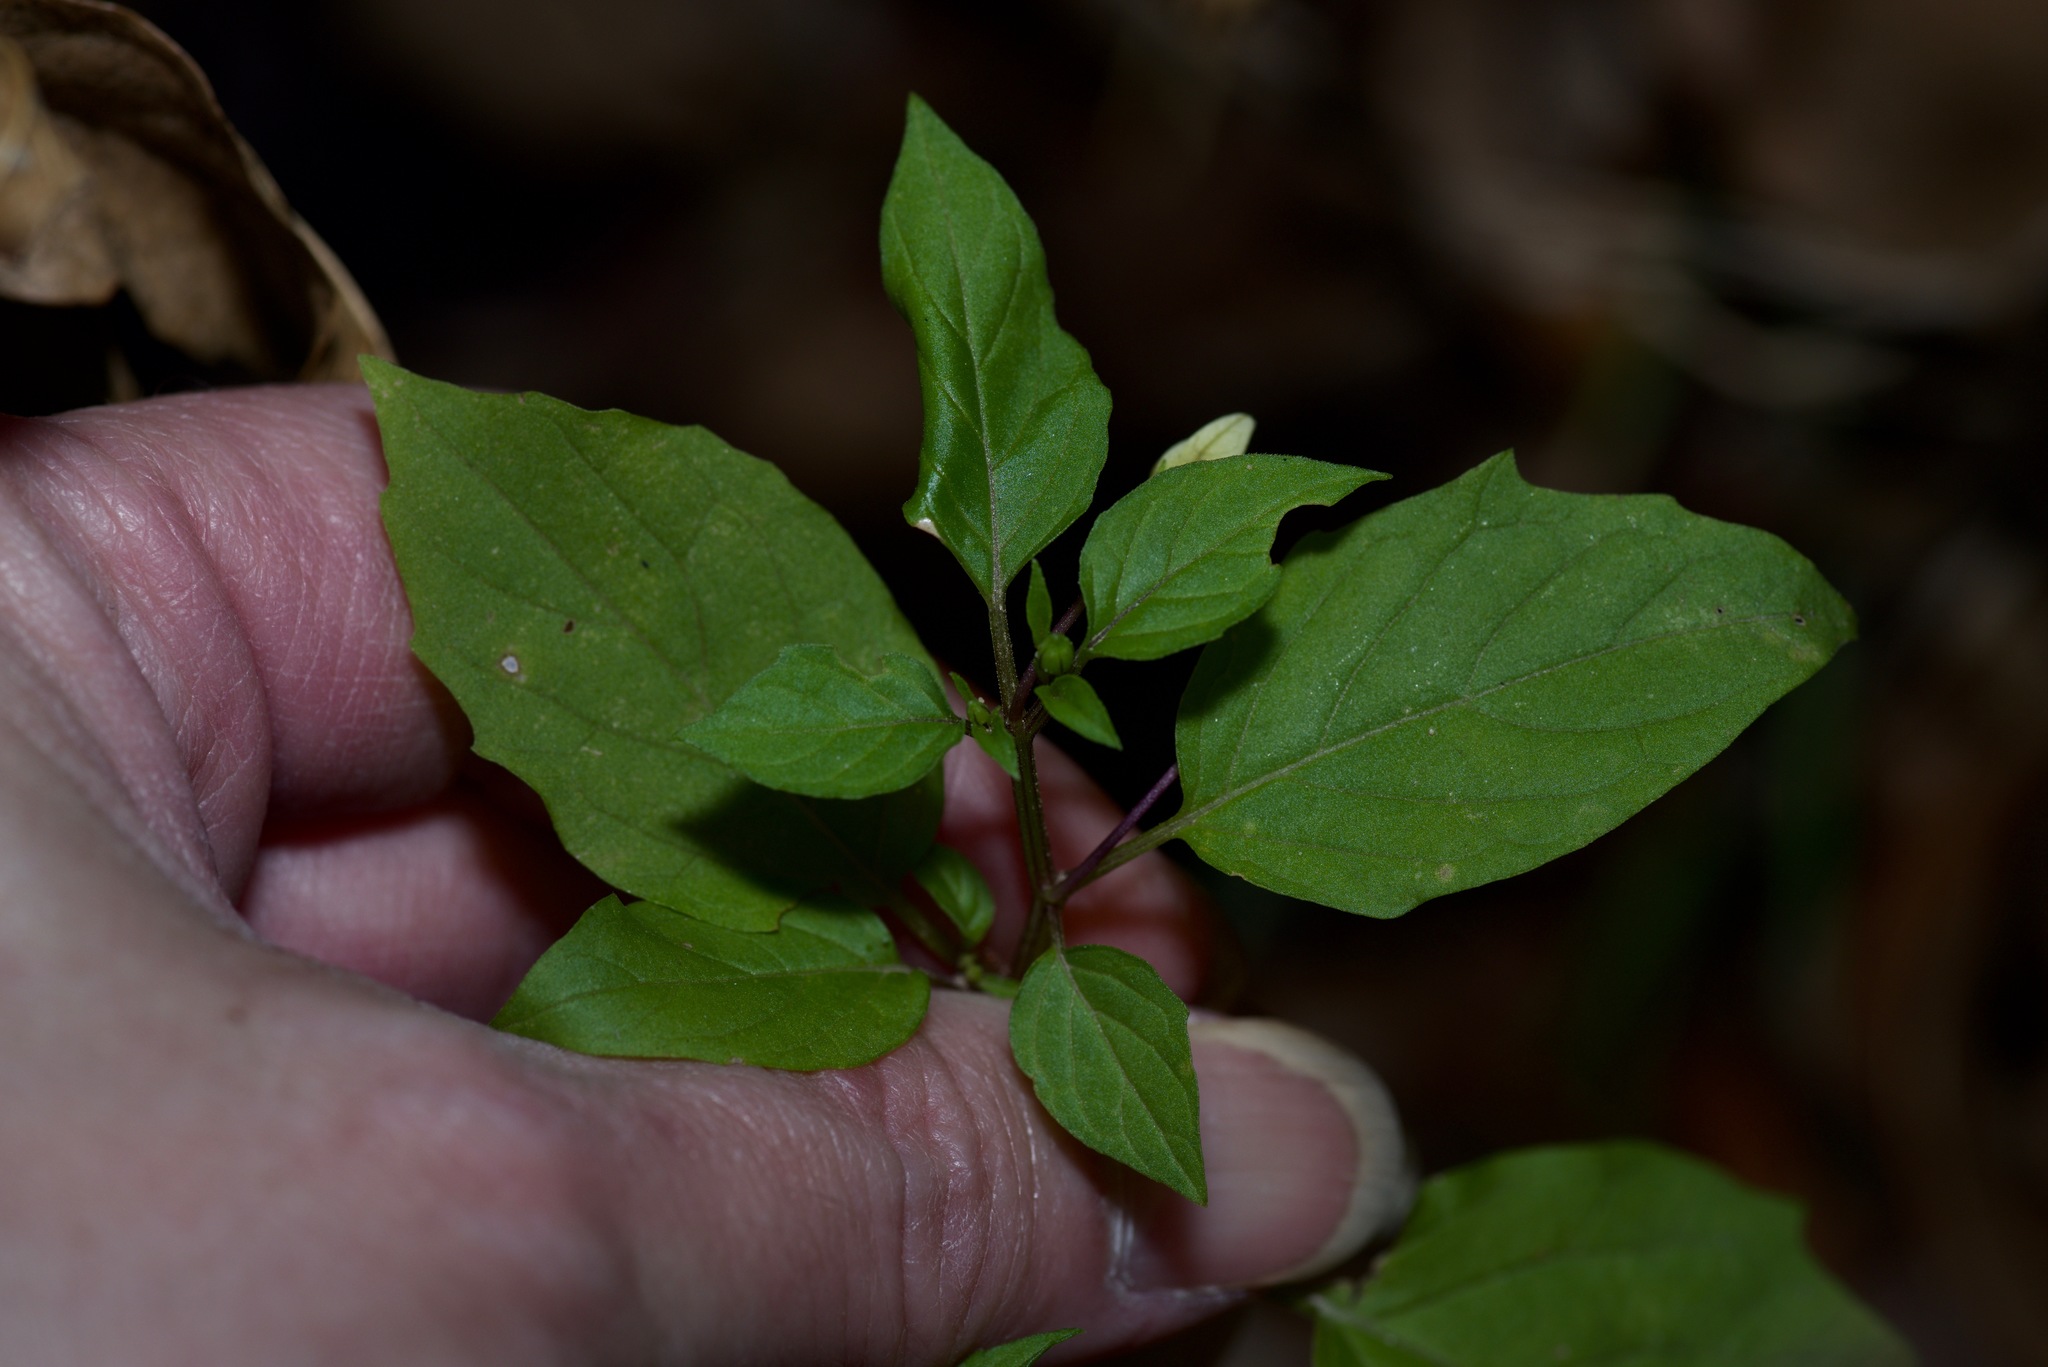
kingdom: Plantae
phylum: Tracheophyta
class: Magnoliopsida
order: Solanales
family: Solanaceae
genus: Physalis
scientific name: Physalis angulata
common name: Angular winter-cherry
